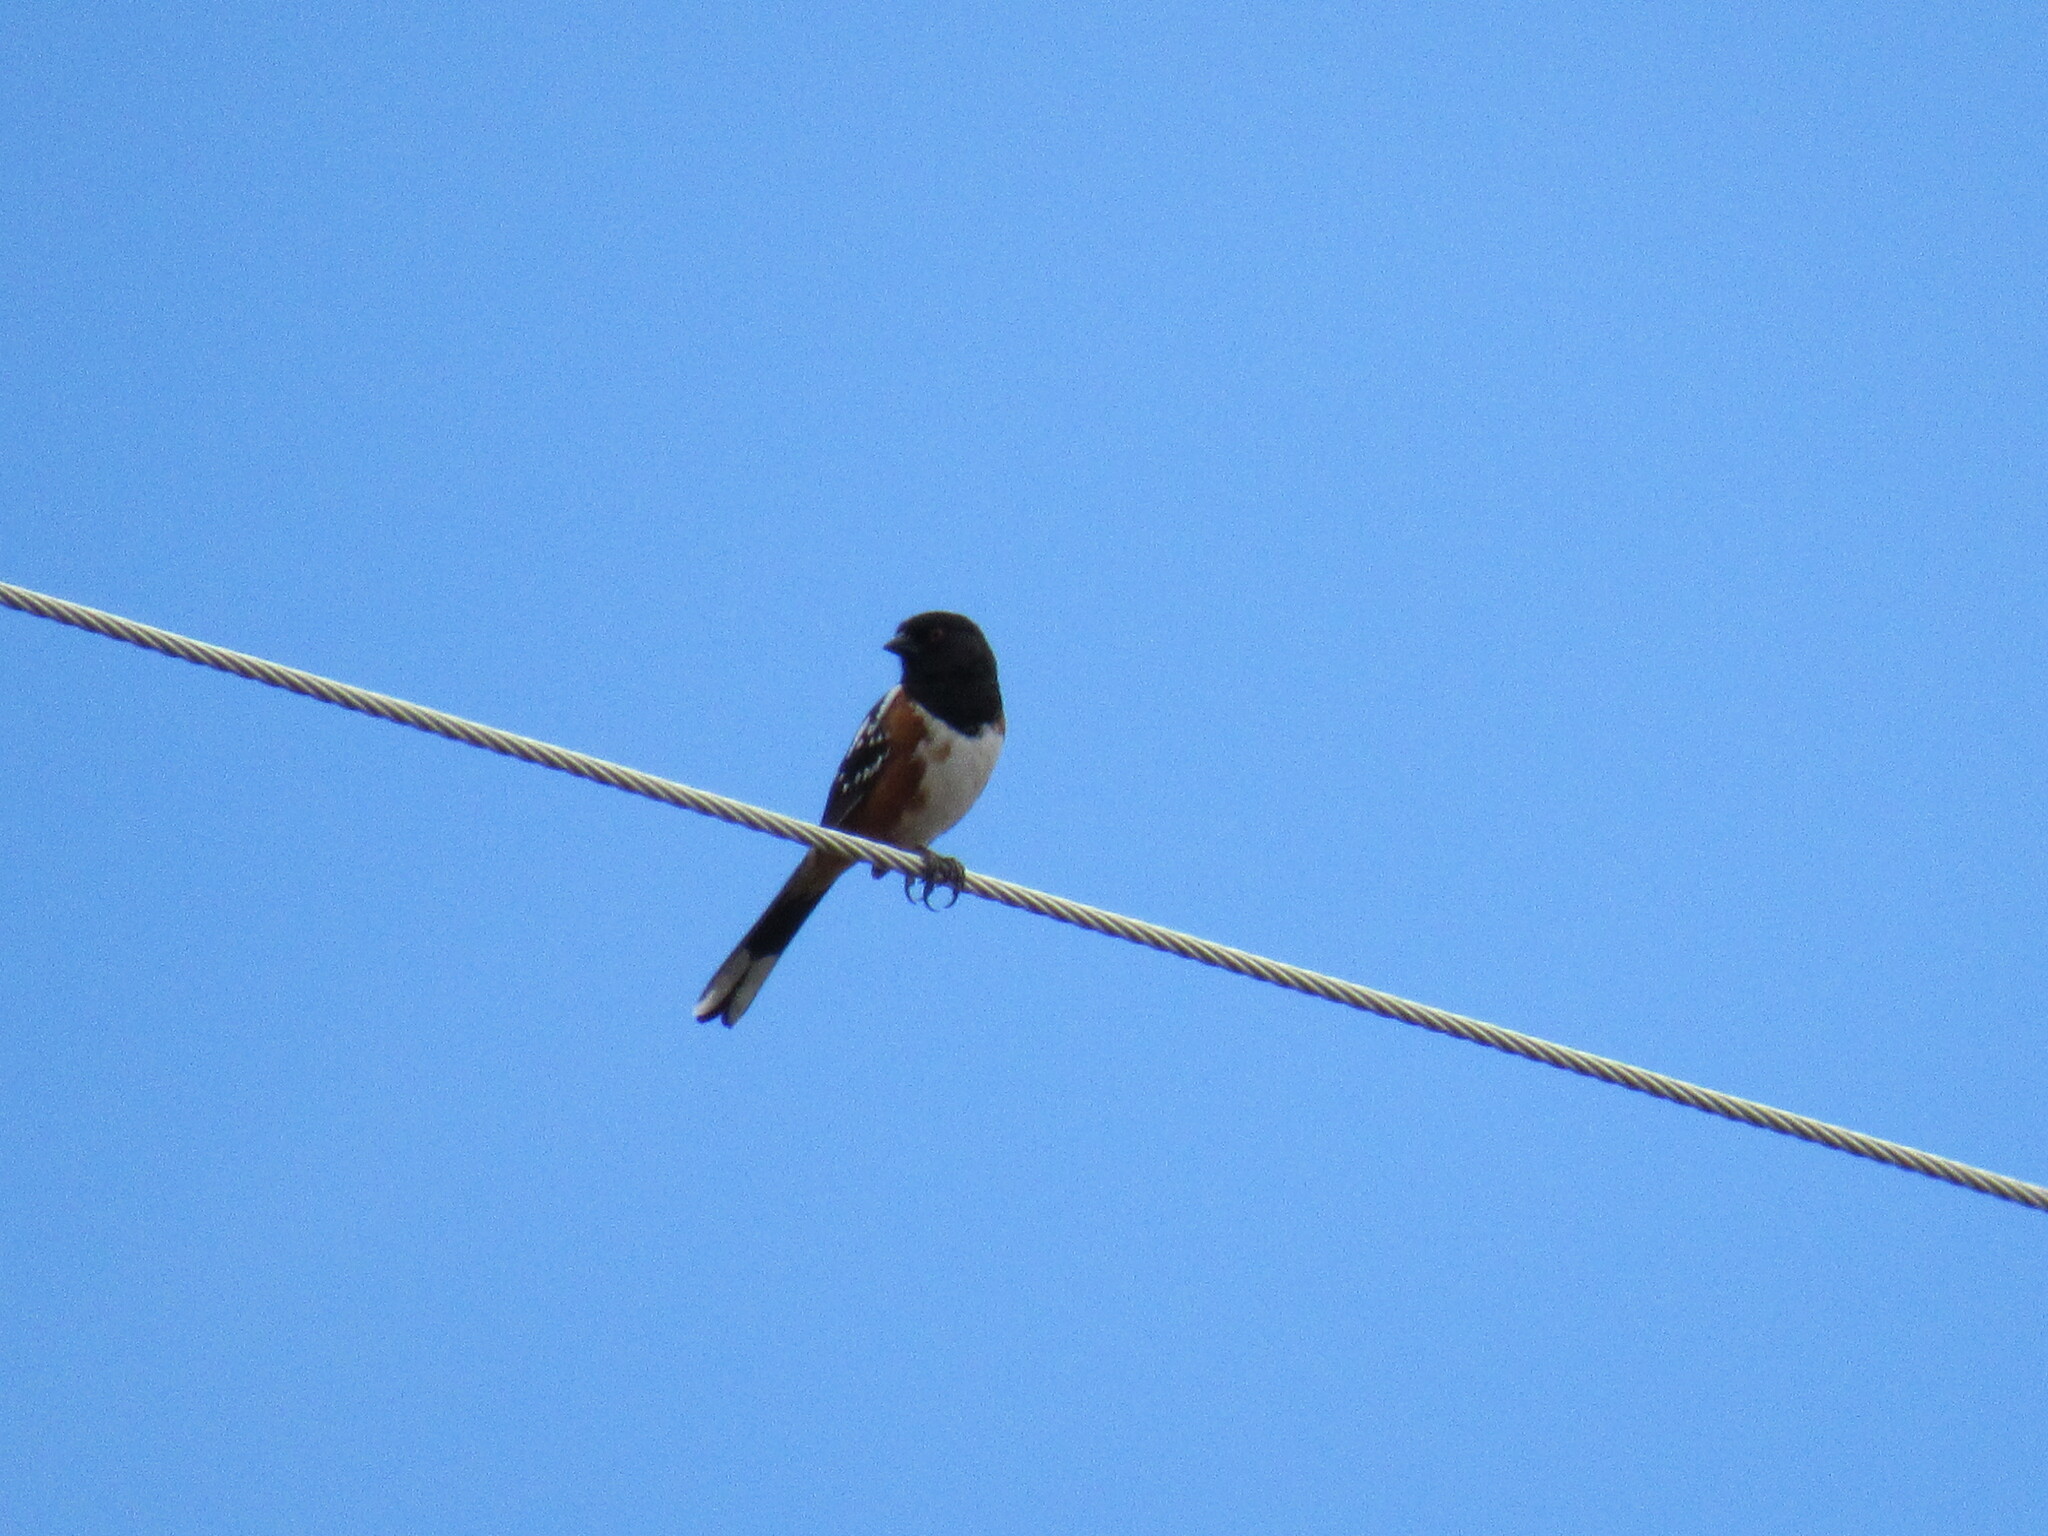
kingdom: Animalia
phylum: Chordata
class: Aves
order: Passeriformes
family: Passerellidae
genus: Pipilo
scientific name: Pipilo maculatus
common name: Spotted towhee
